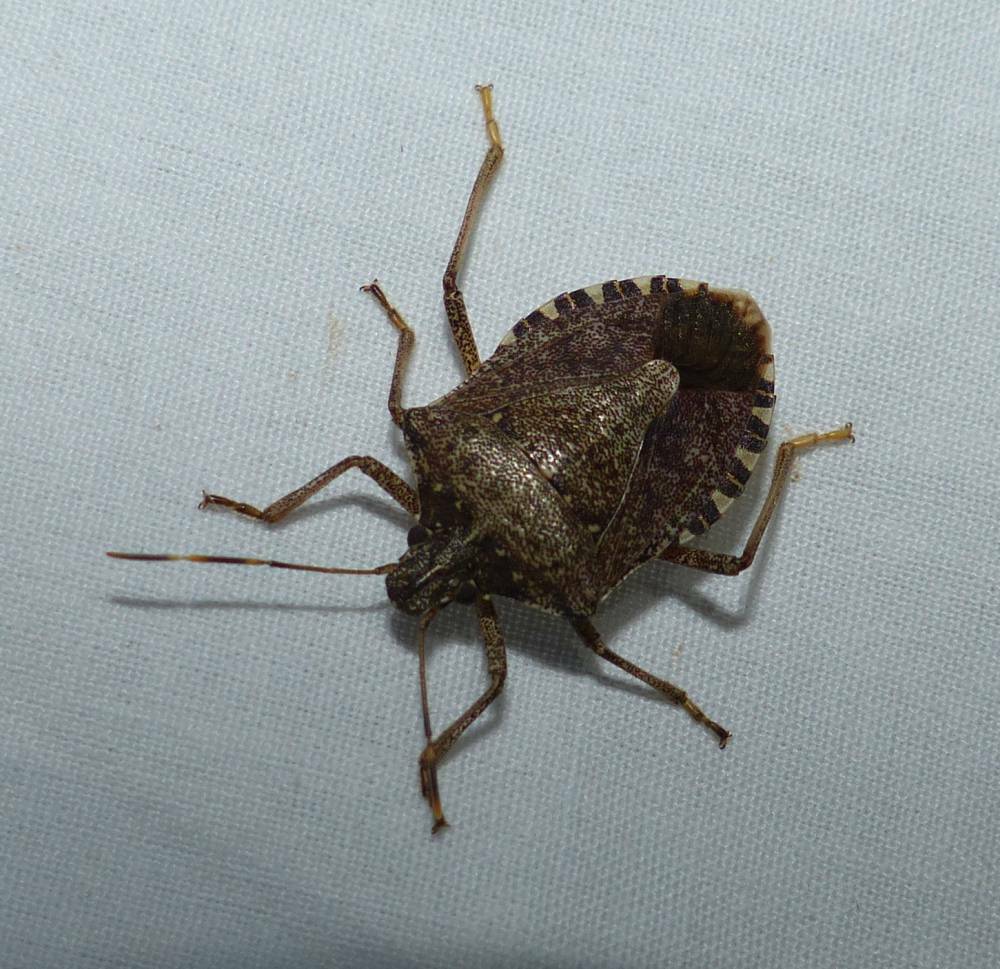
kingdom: Animalia
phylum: Arthropoda
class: Insecta
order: Hemiptera
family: Pentatomidae
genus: Halyomorpha
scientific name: Halyomorpha halys
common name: Brown marmorated stink bug
